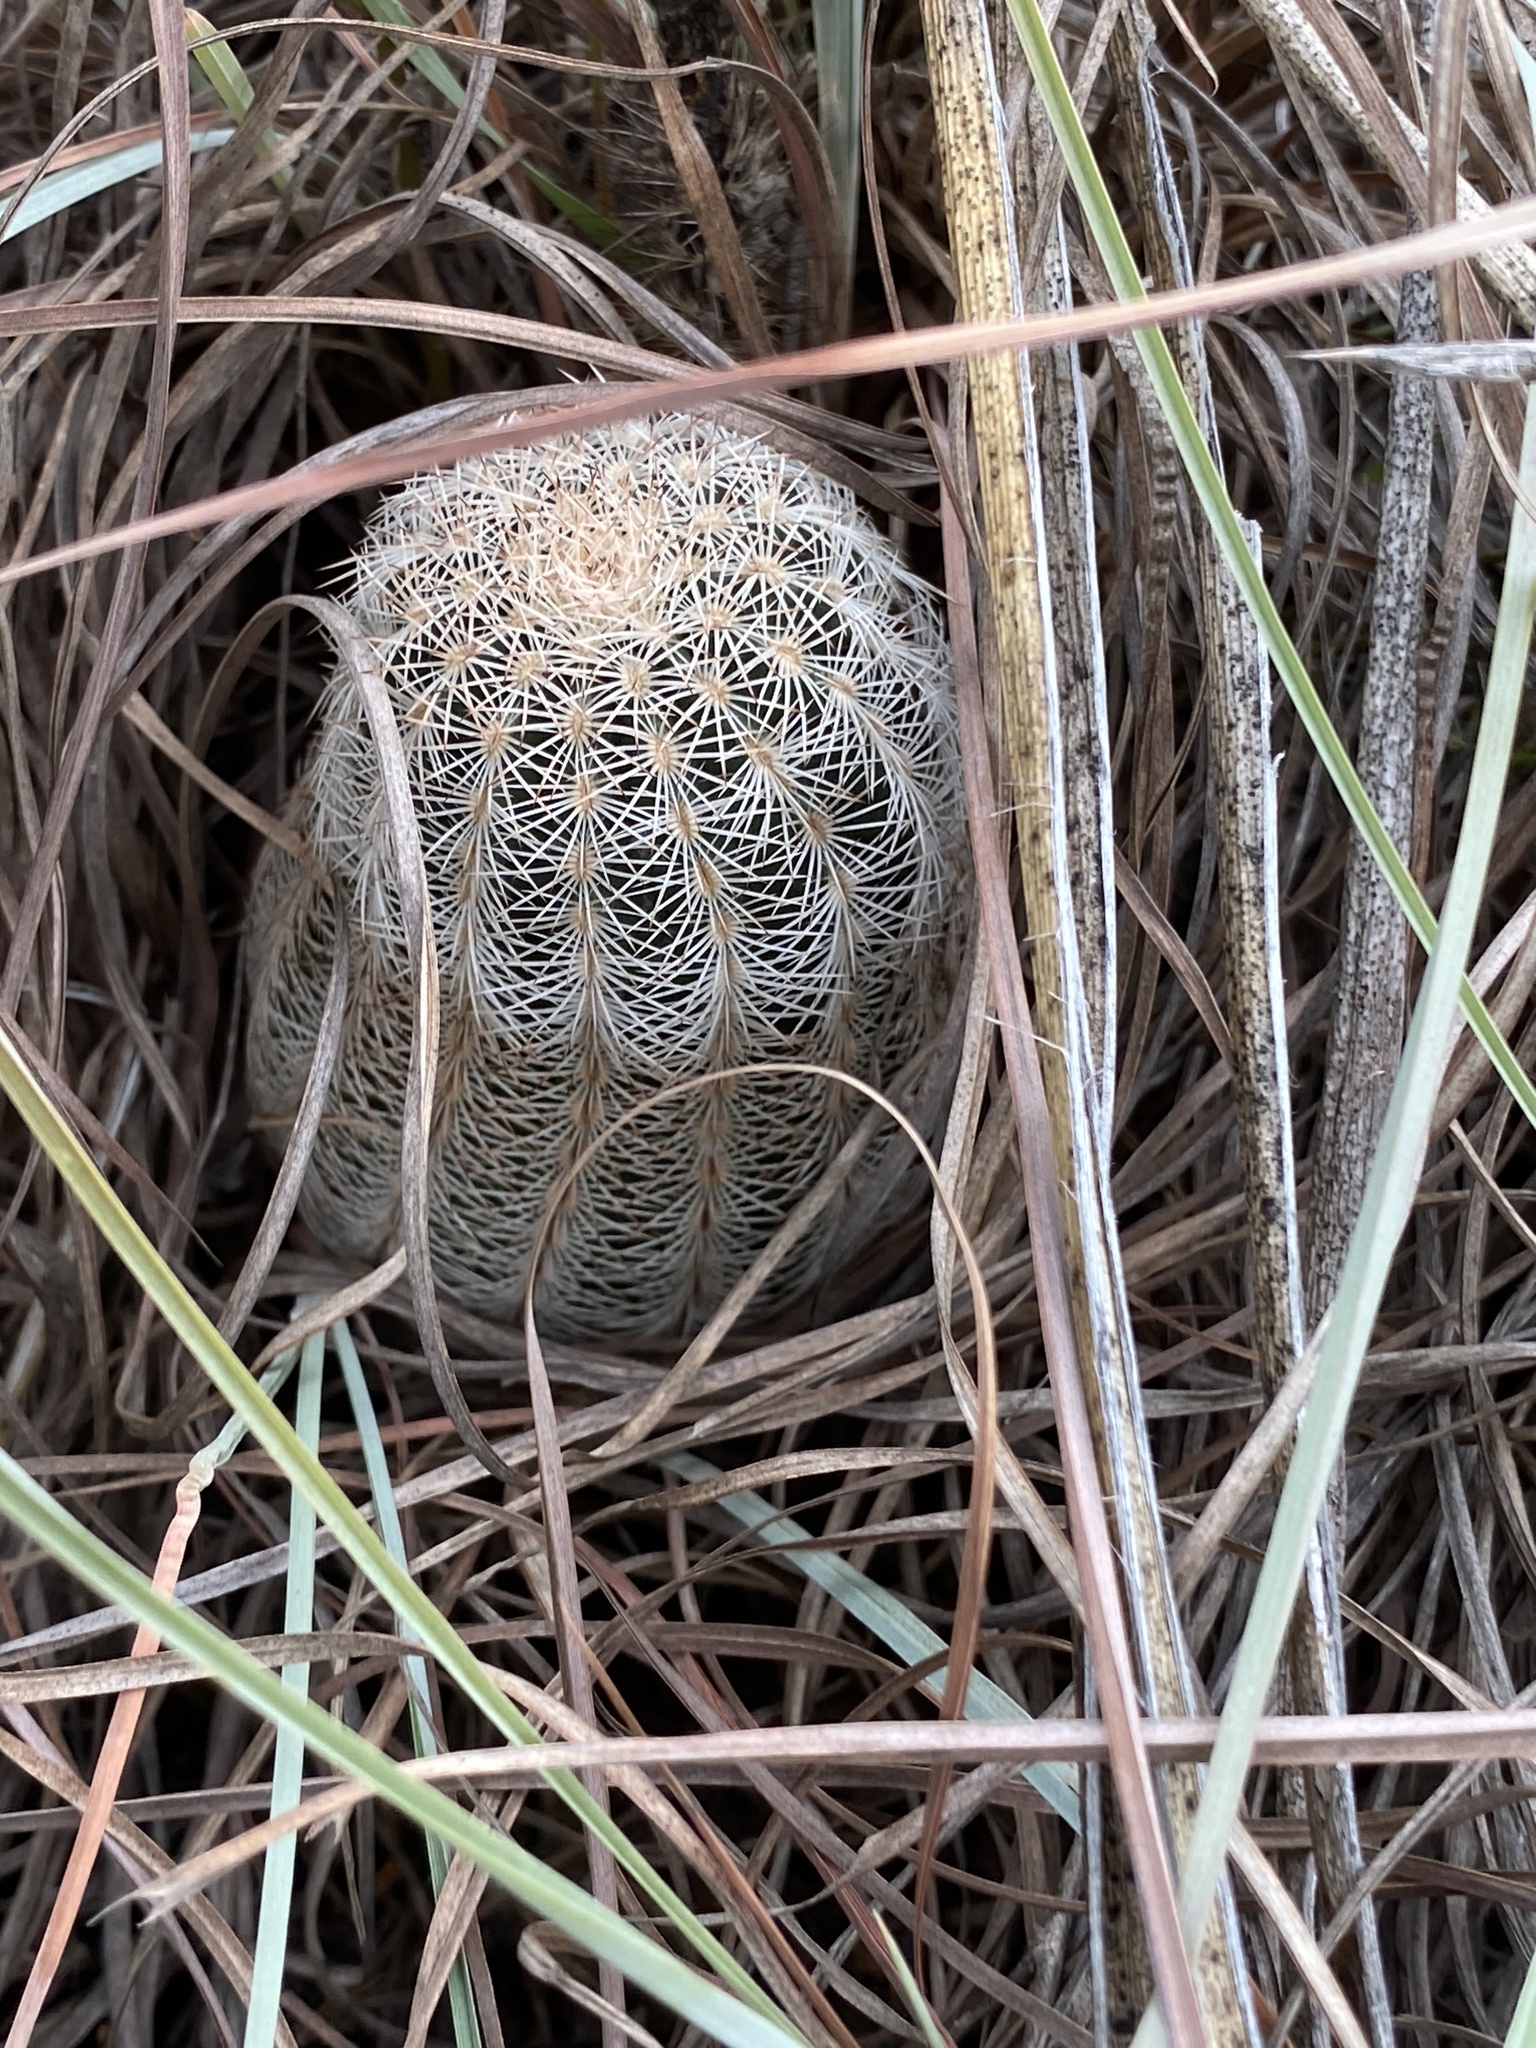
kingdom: Plantae
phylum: Tracheophyta
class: Magnoliopsida
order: Caryophyllales
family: Cactaceae
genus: Echinocereus
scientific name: Echinocereus reichenbachii
